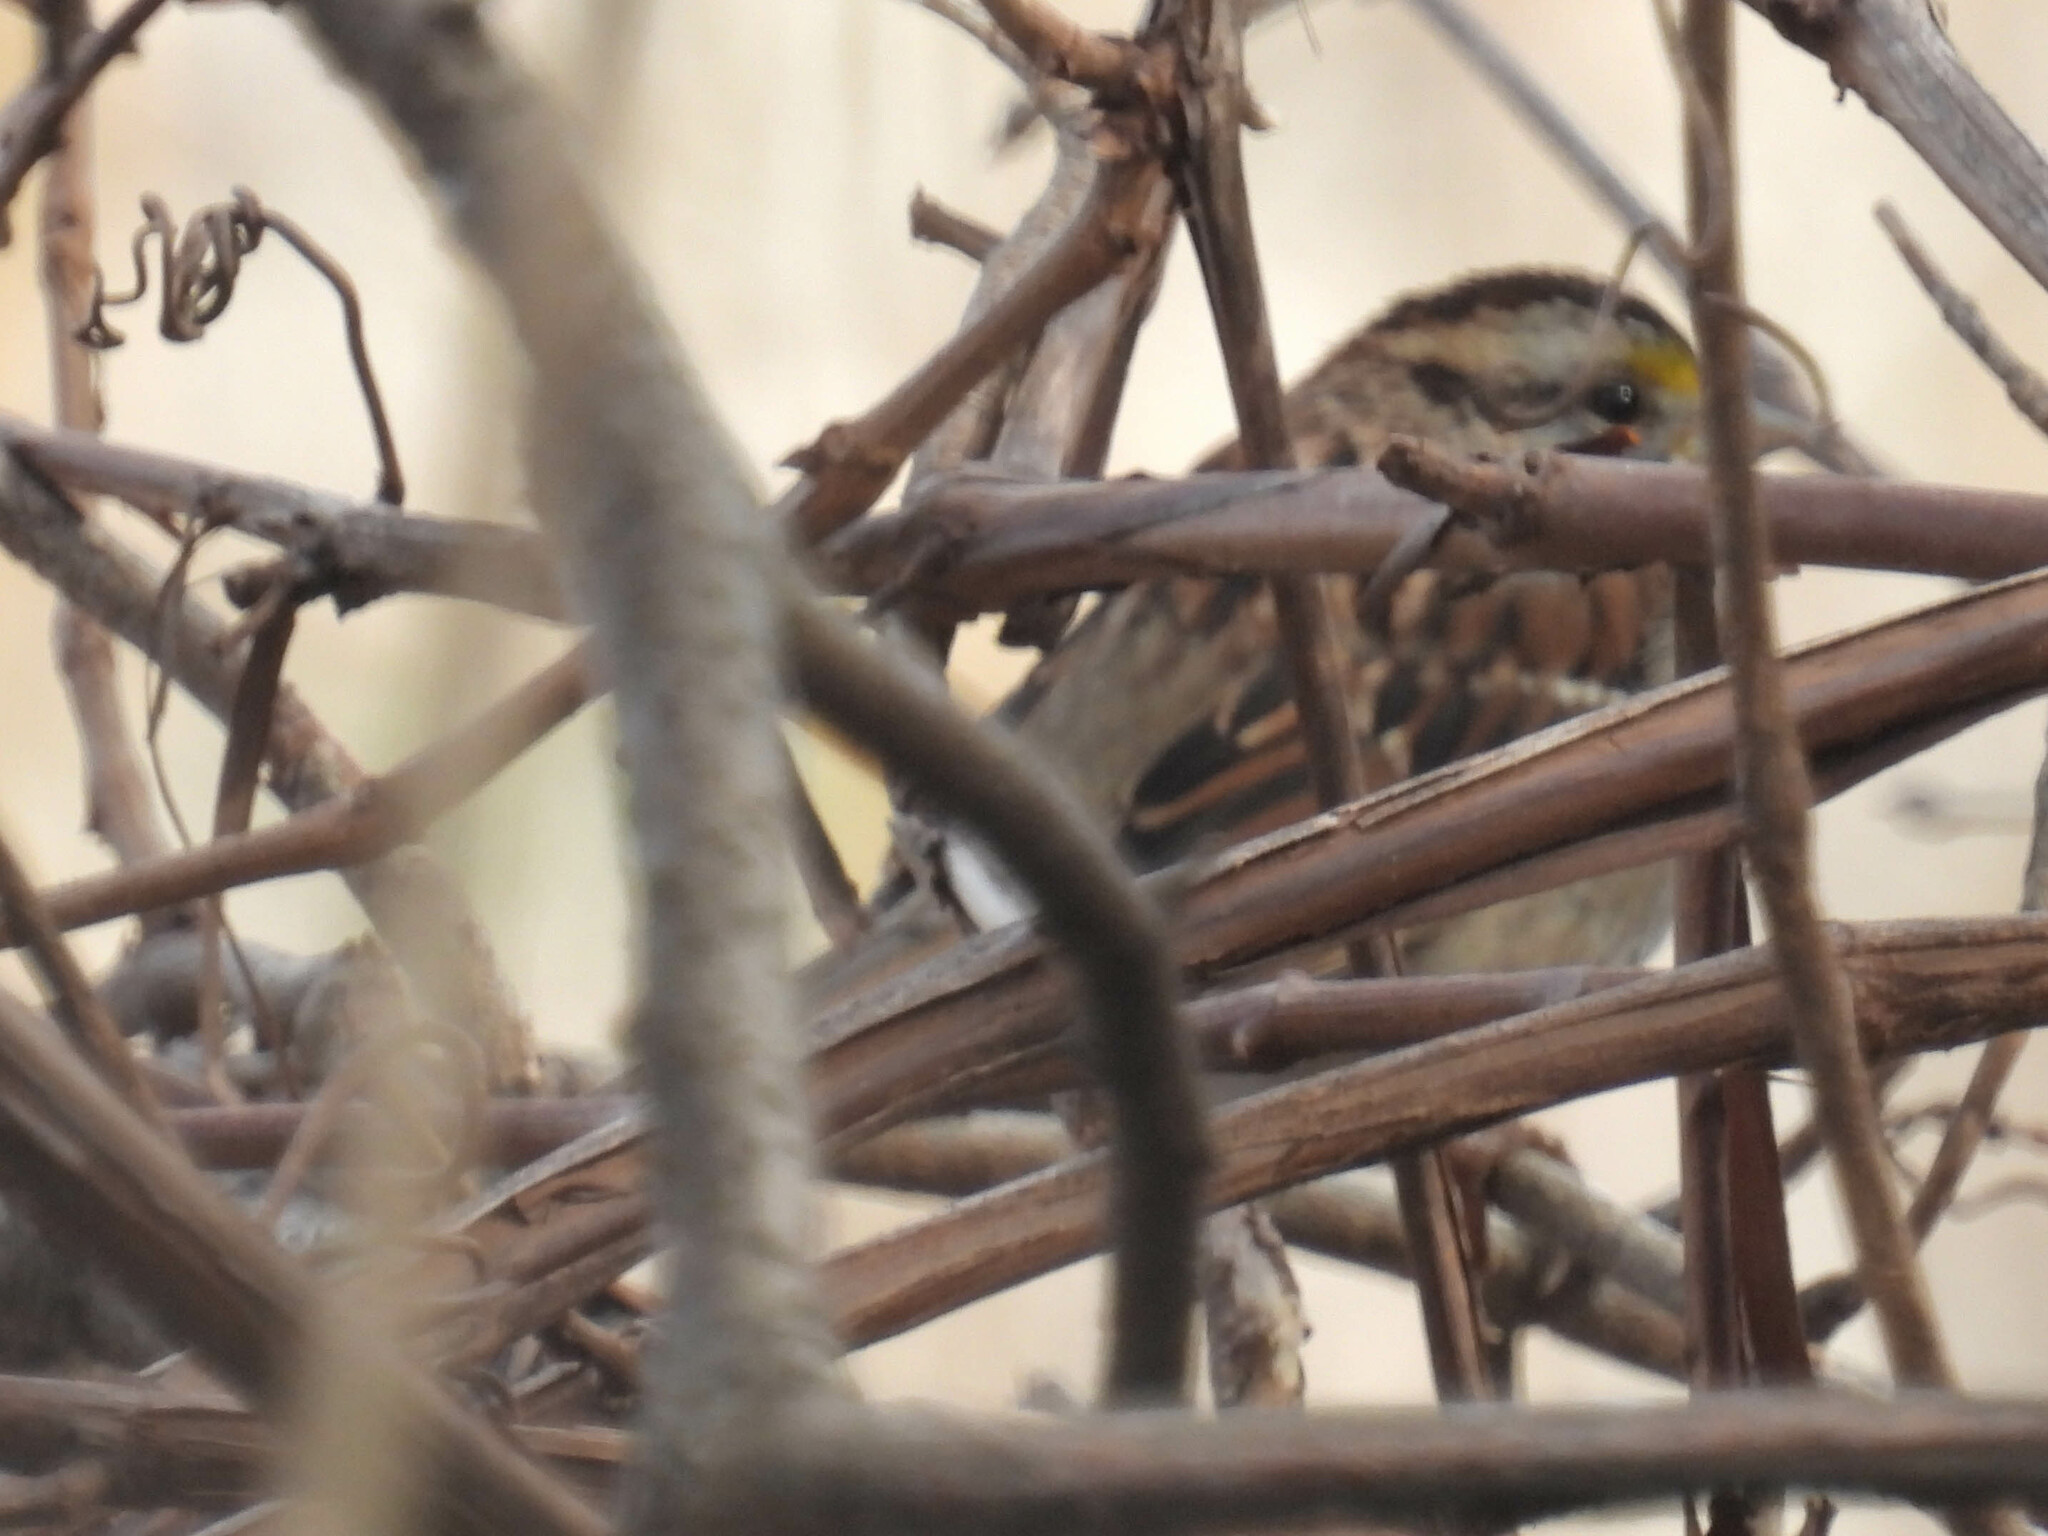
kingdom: Animalia
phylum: Chordata
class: Aves
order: Passeriformes
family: Passerellidae
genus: Zonotrichia
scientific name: Zonotrichia albicollis
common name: White-throated sparrow
